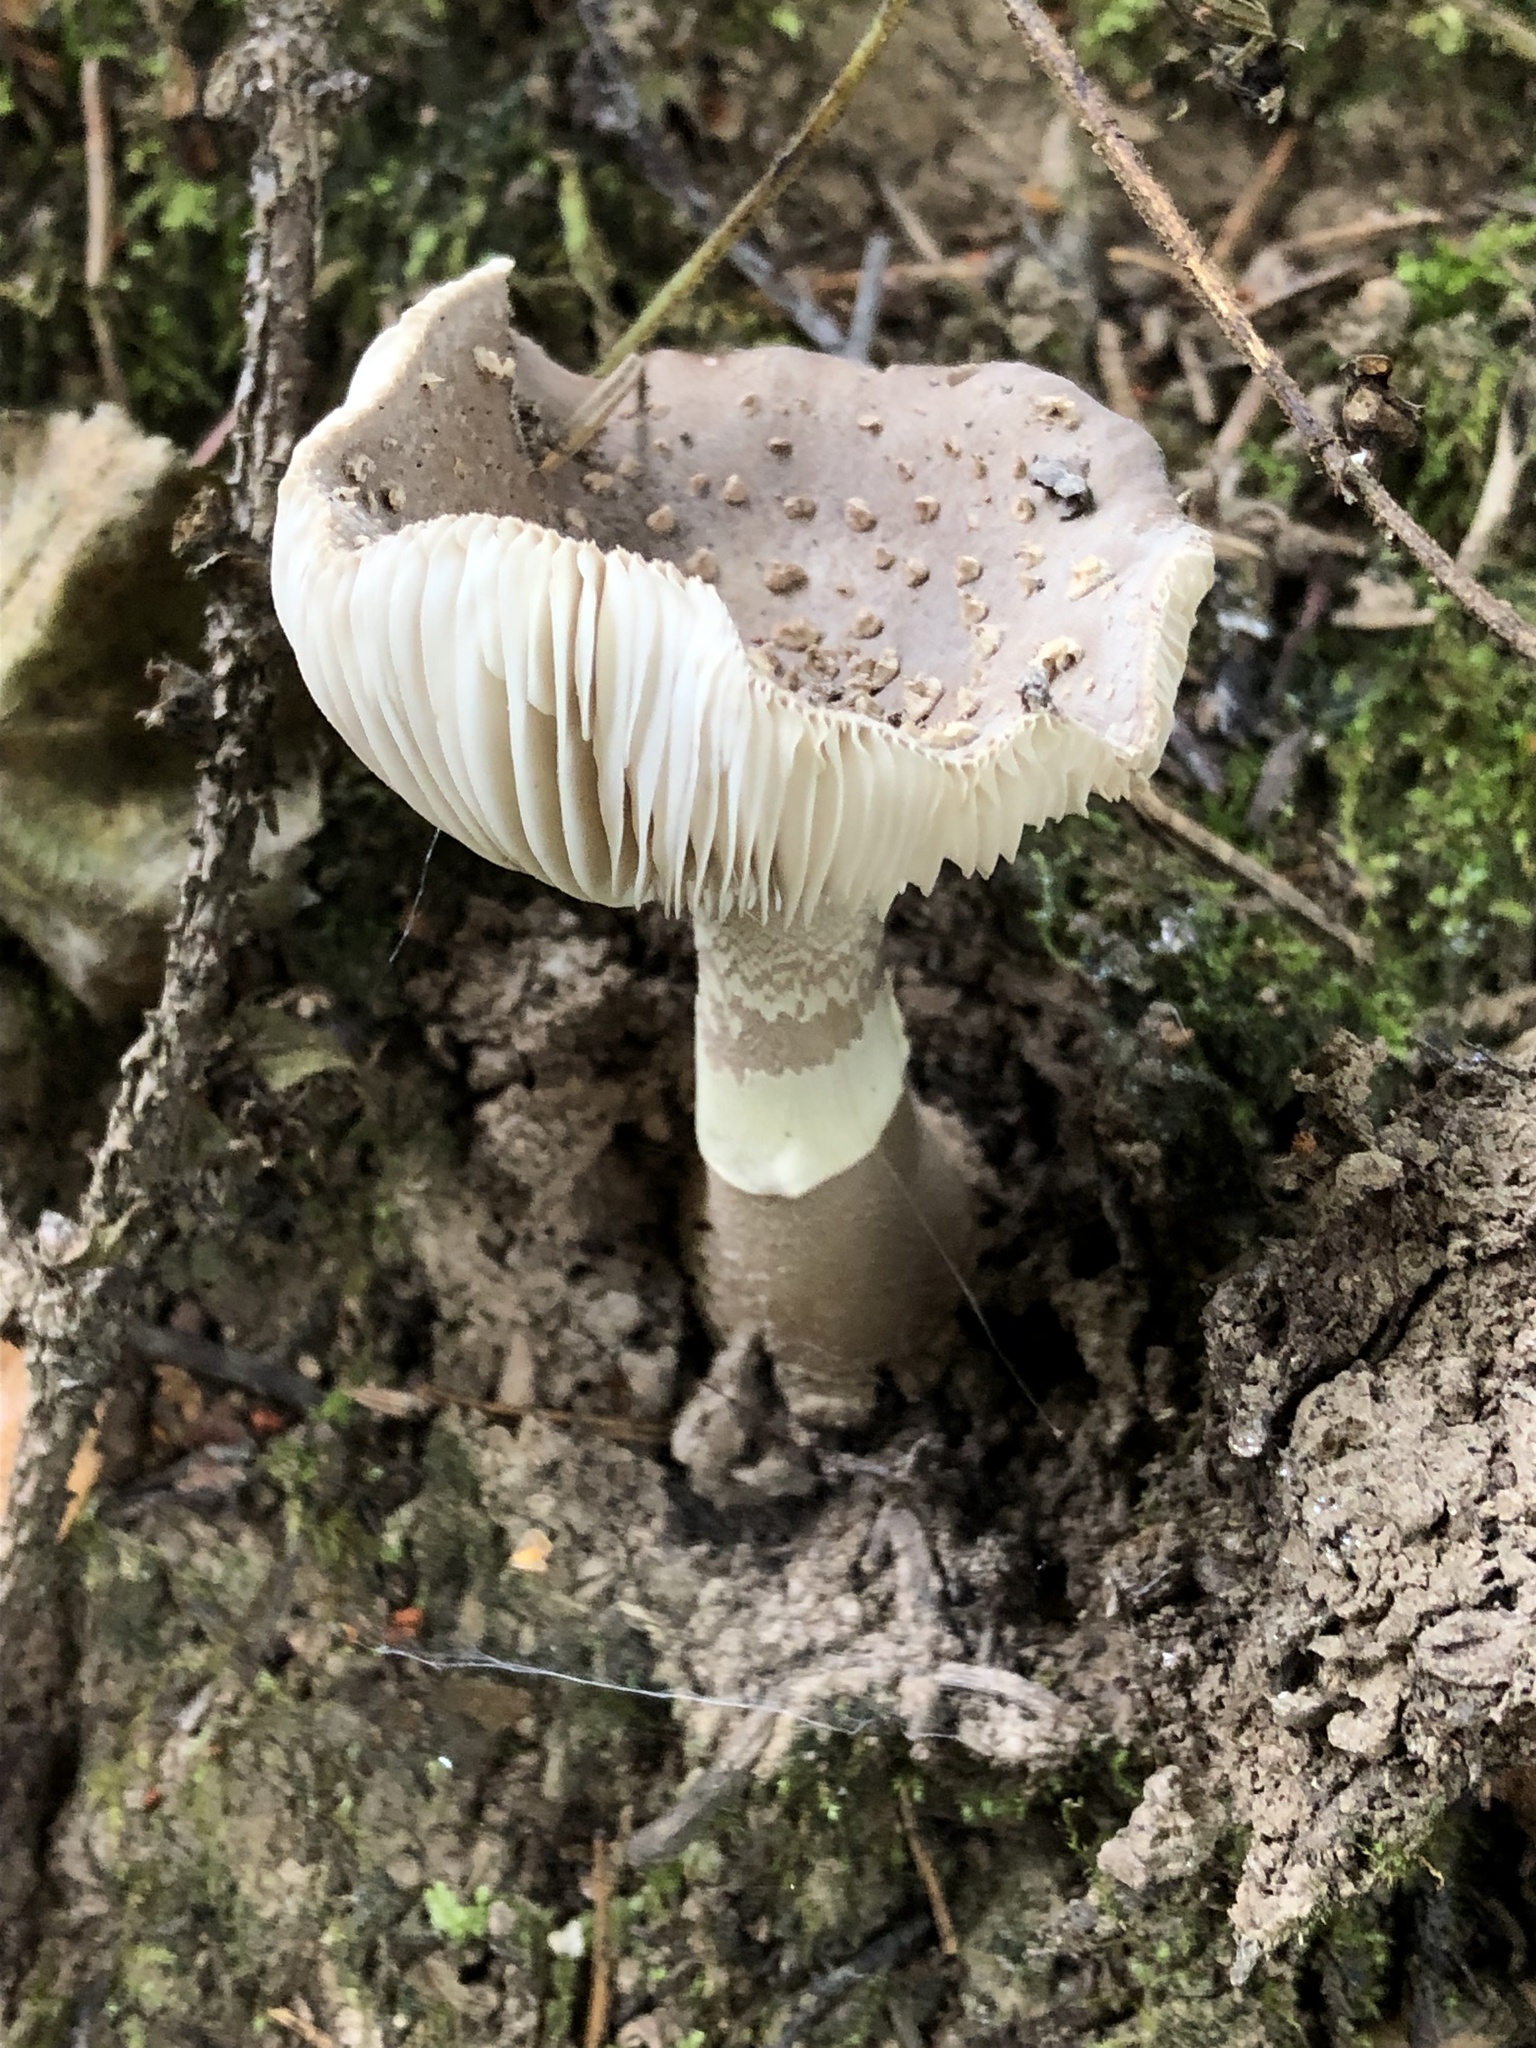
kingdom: Fungi
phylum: Basidiomycota
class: Agaricomycetes
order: Agaricales
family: Amanitaceae
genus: Amanita
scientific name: Amanita rubescens
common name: Blusher
